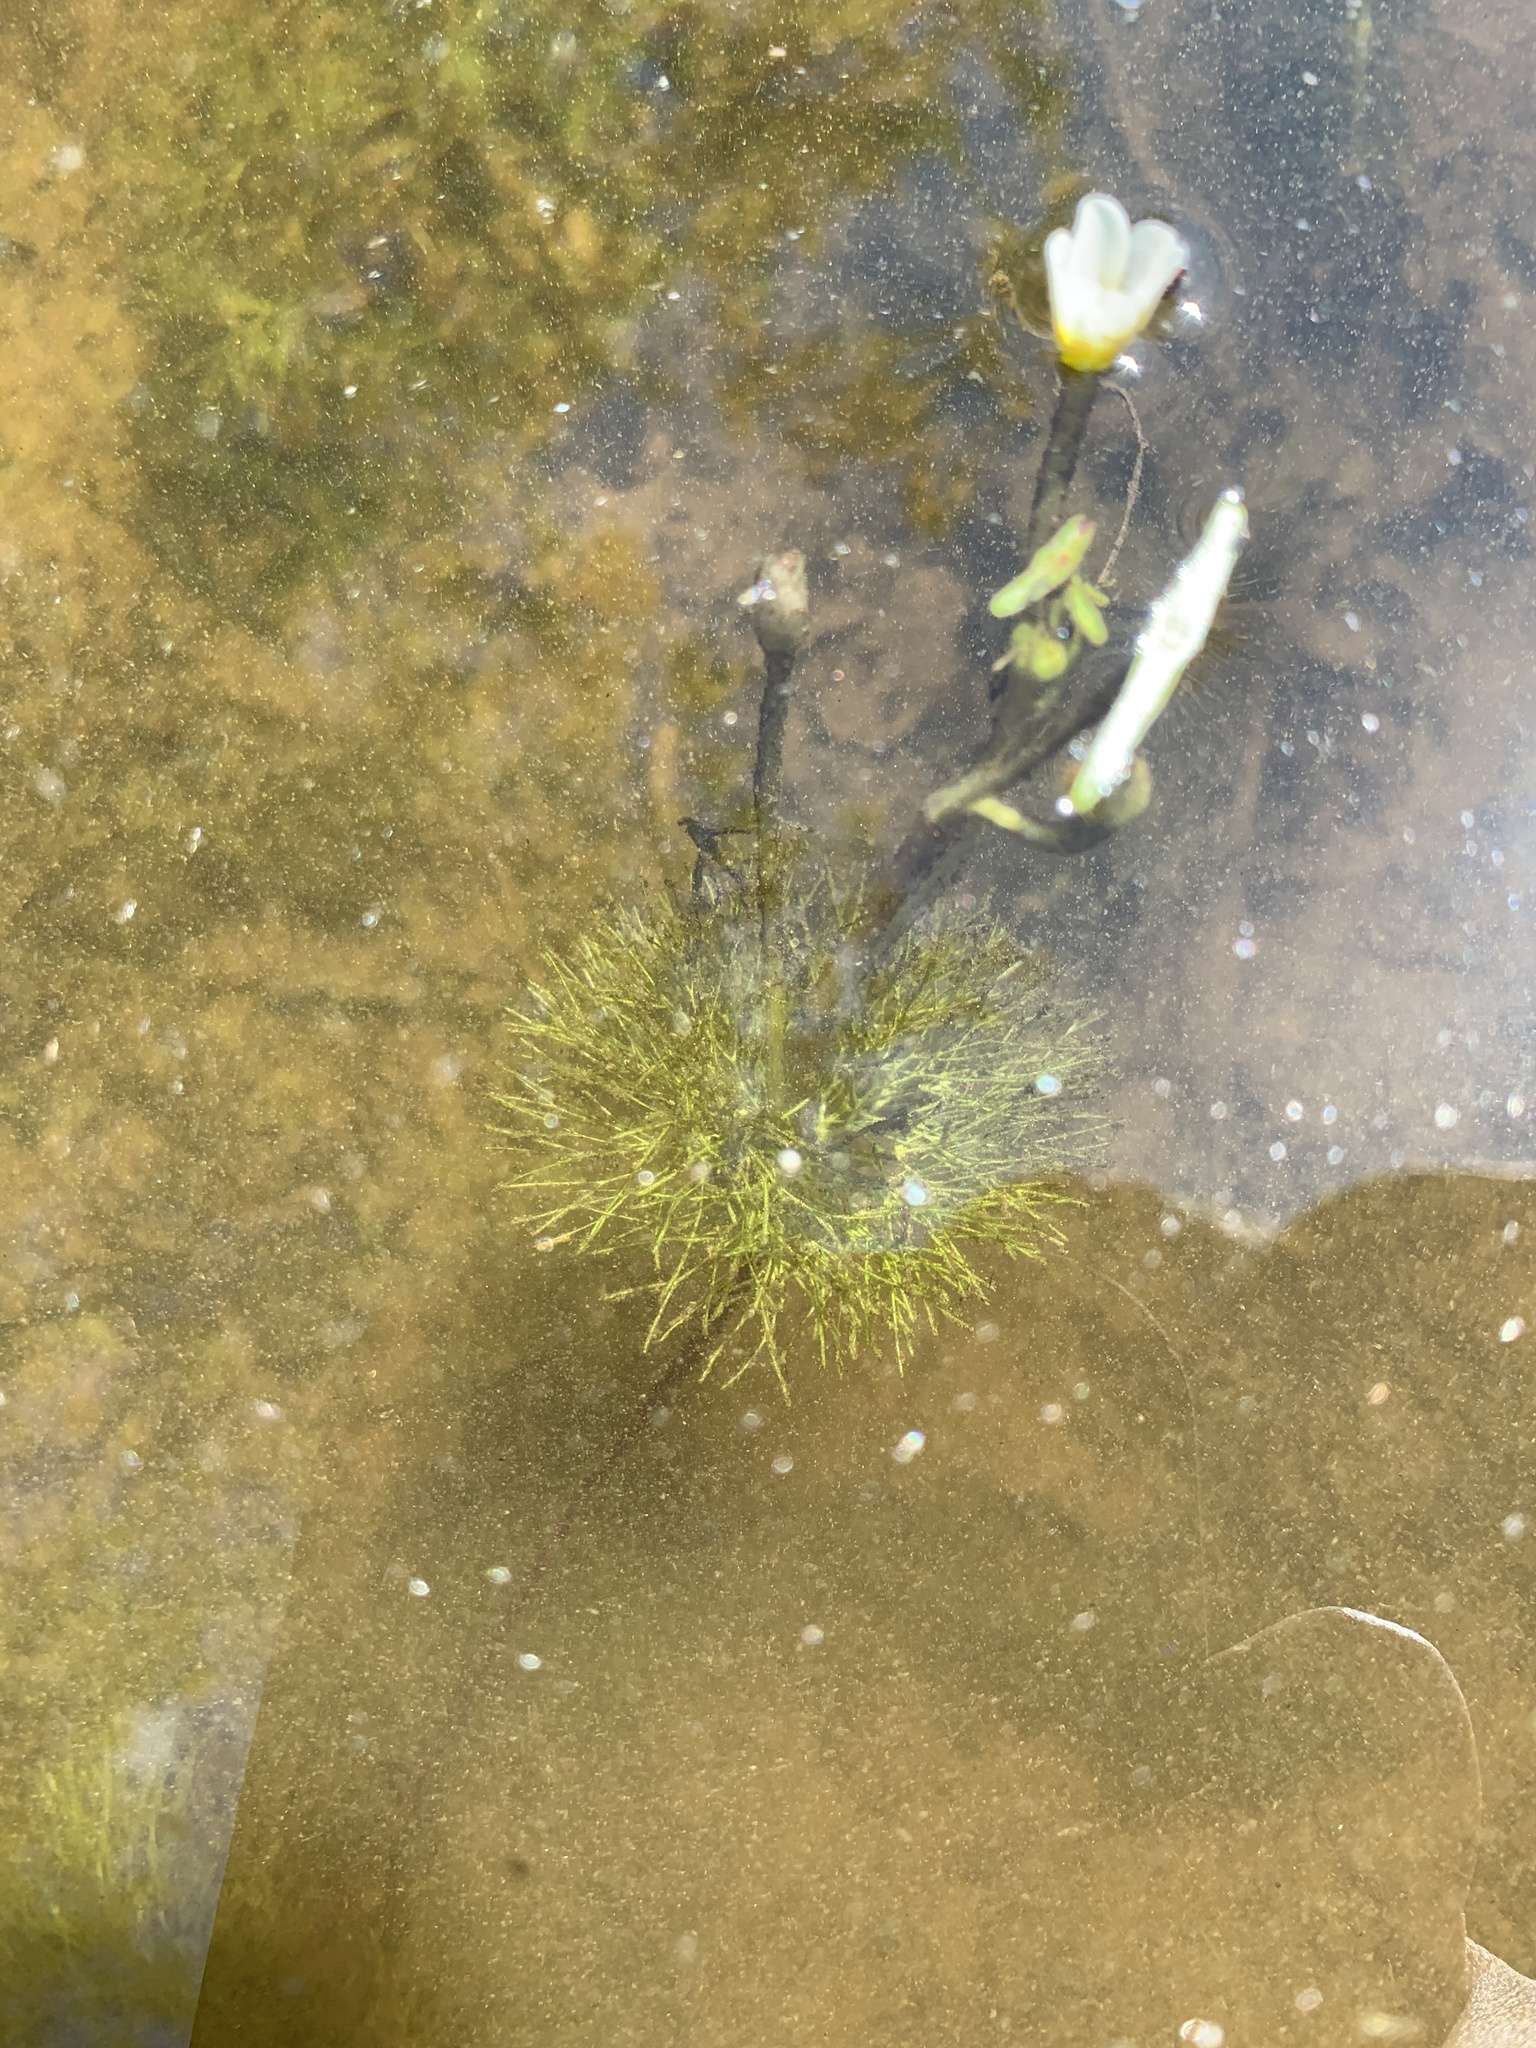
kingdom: Plantae
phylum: Tracheophyta
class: Magnoliopsida
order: Nymphaeales
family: Cabombaceae
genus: Cabomba
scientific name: Cabomba caroliniana
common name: Fanwort
